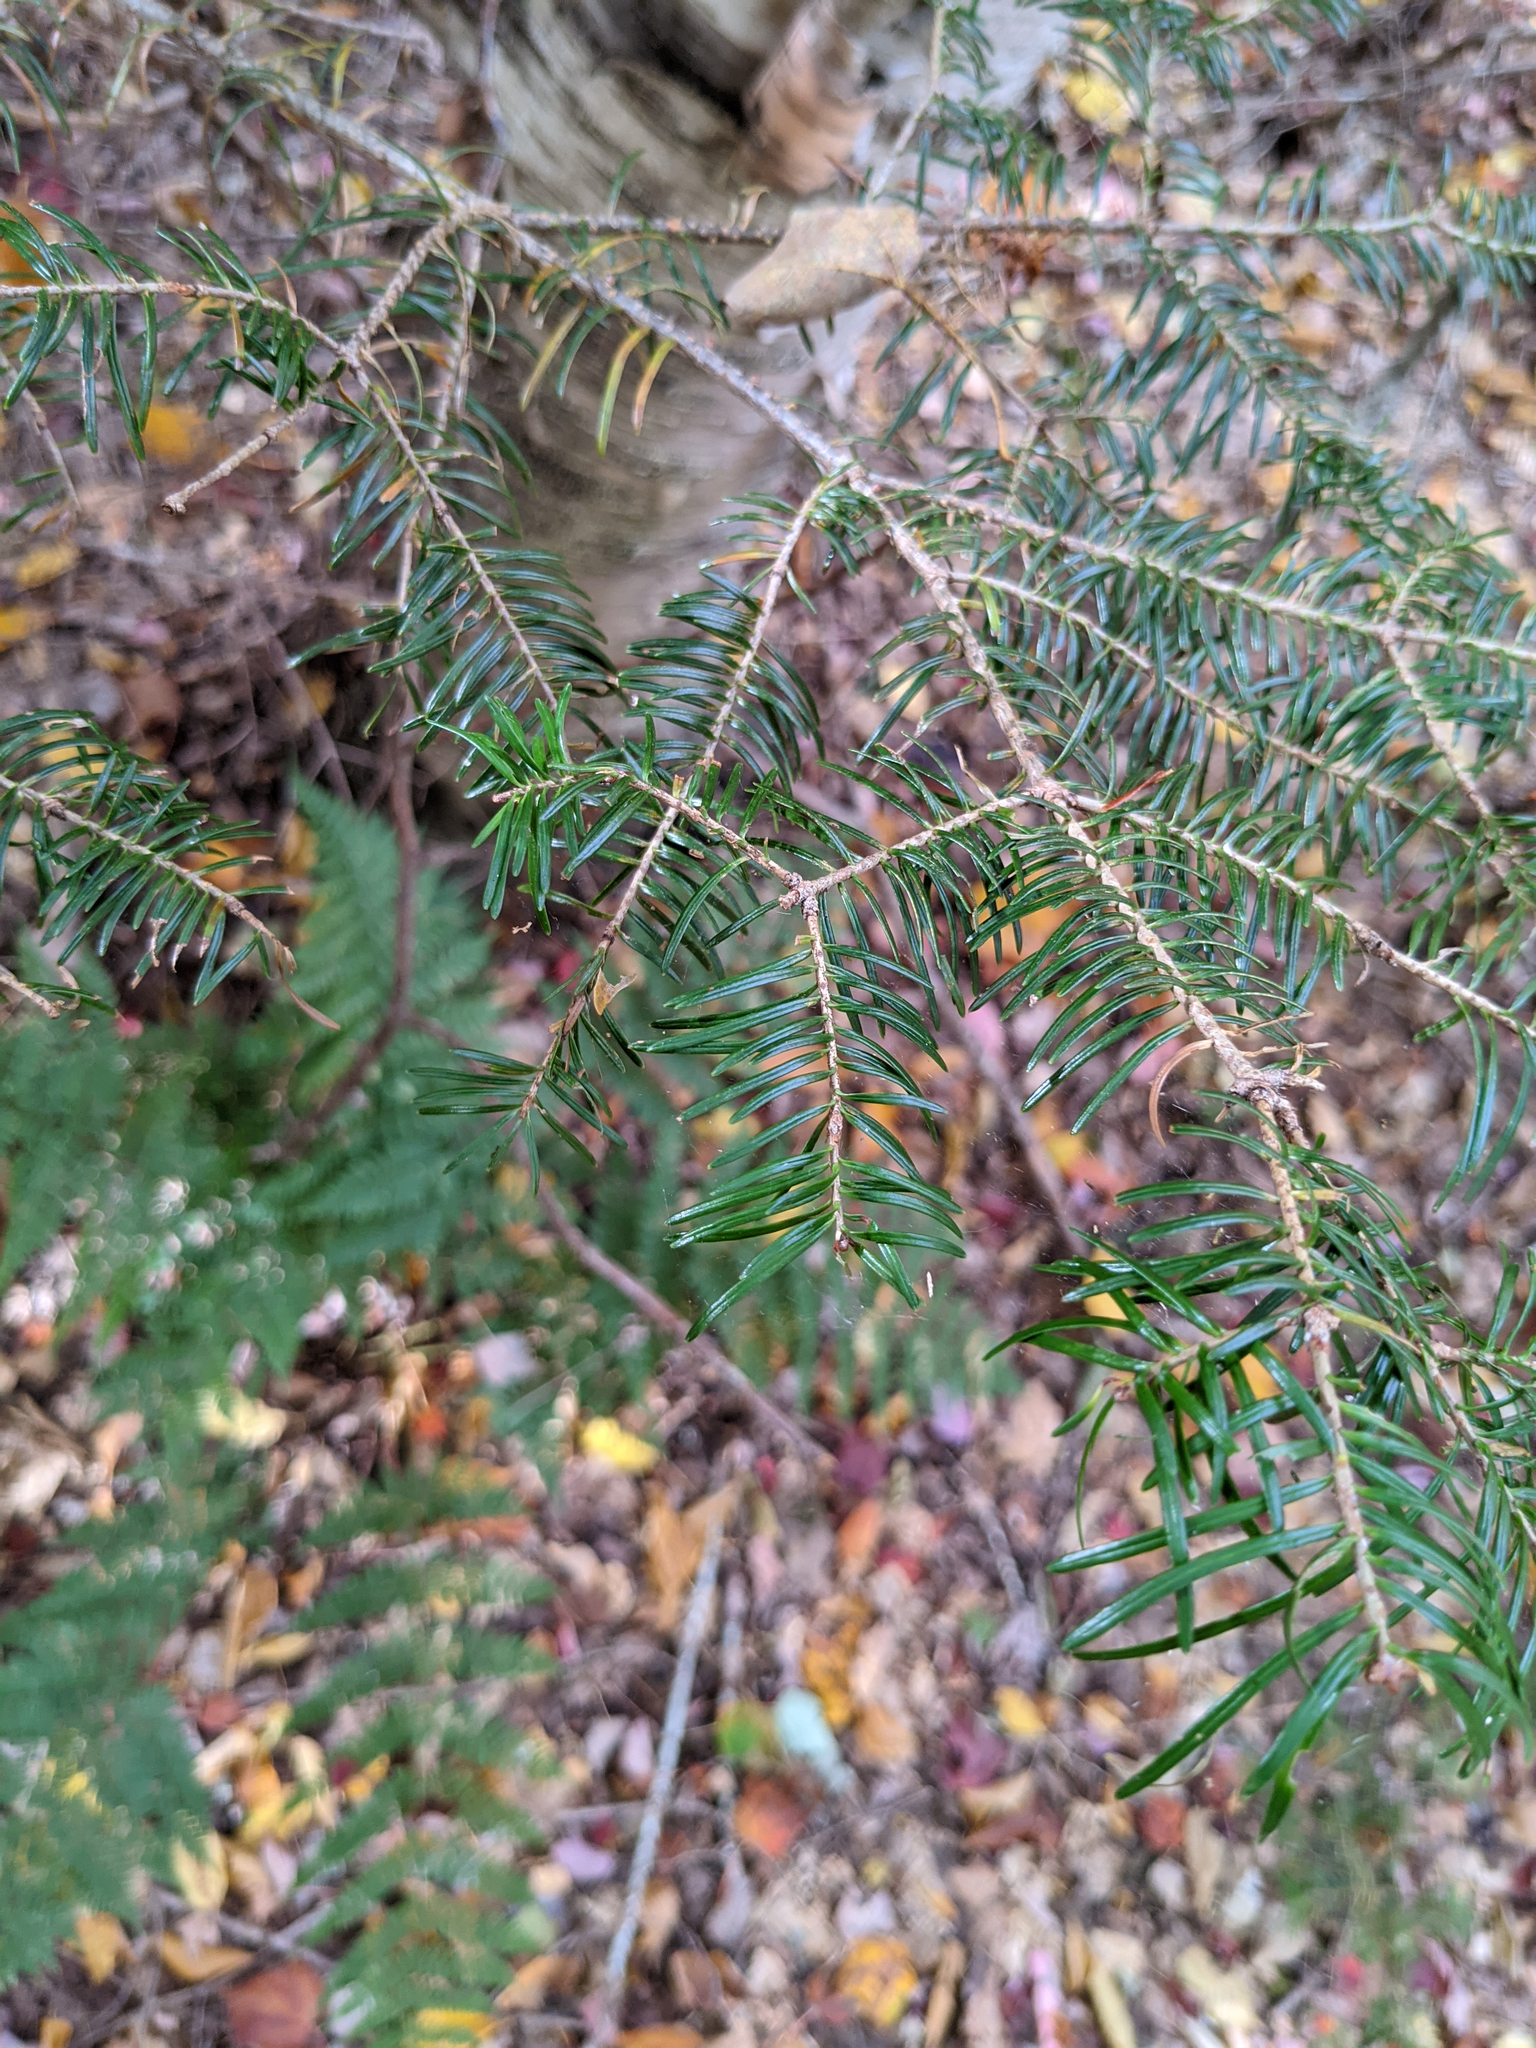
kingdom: Plantae
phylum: Tracheophyta
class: Pinopsida
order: Pinales
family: Pinaceae
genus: Abies
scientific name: Abies balsamea
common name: Balsam fir
